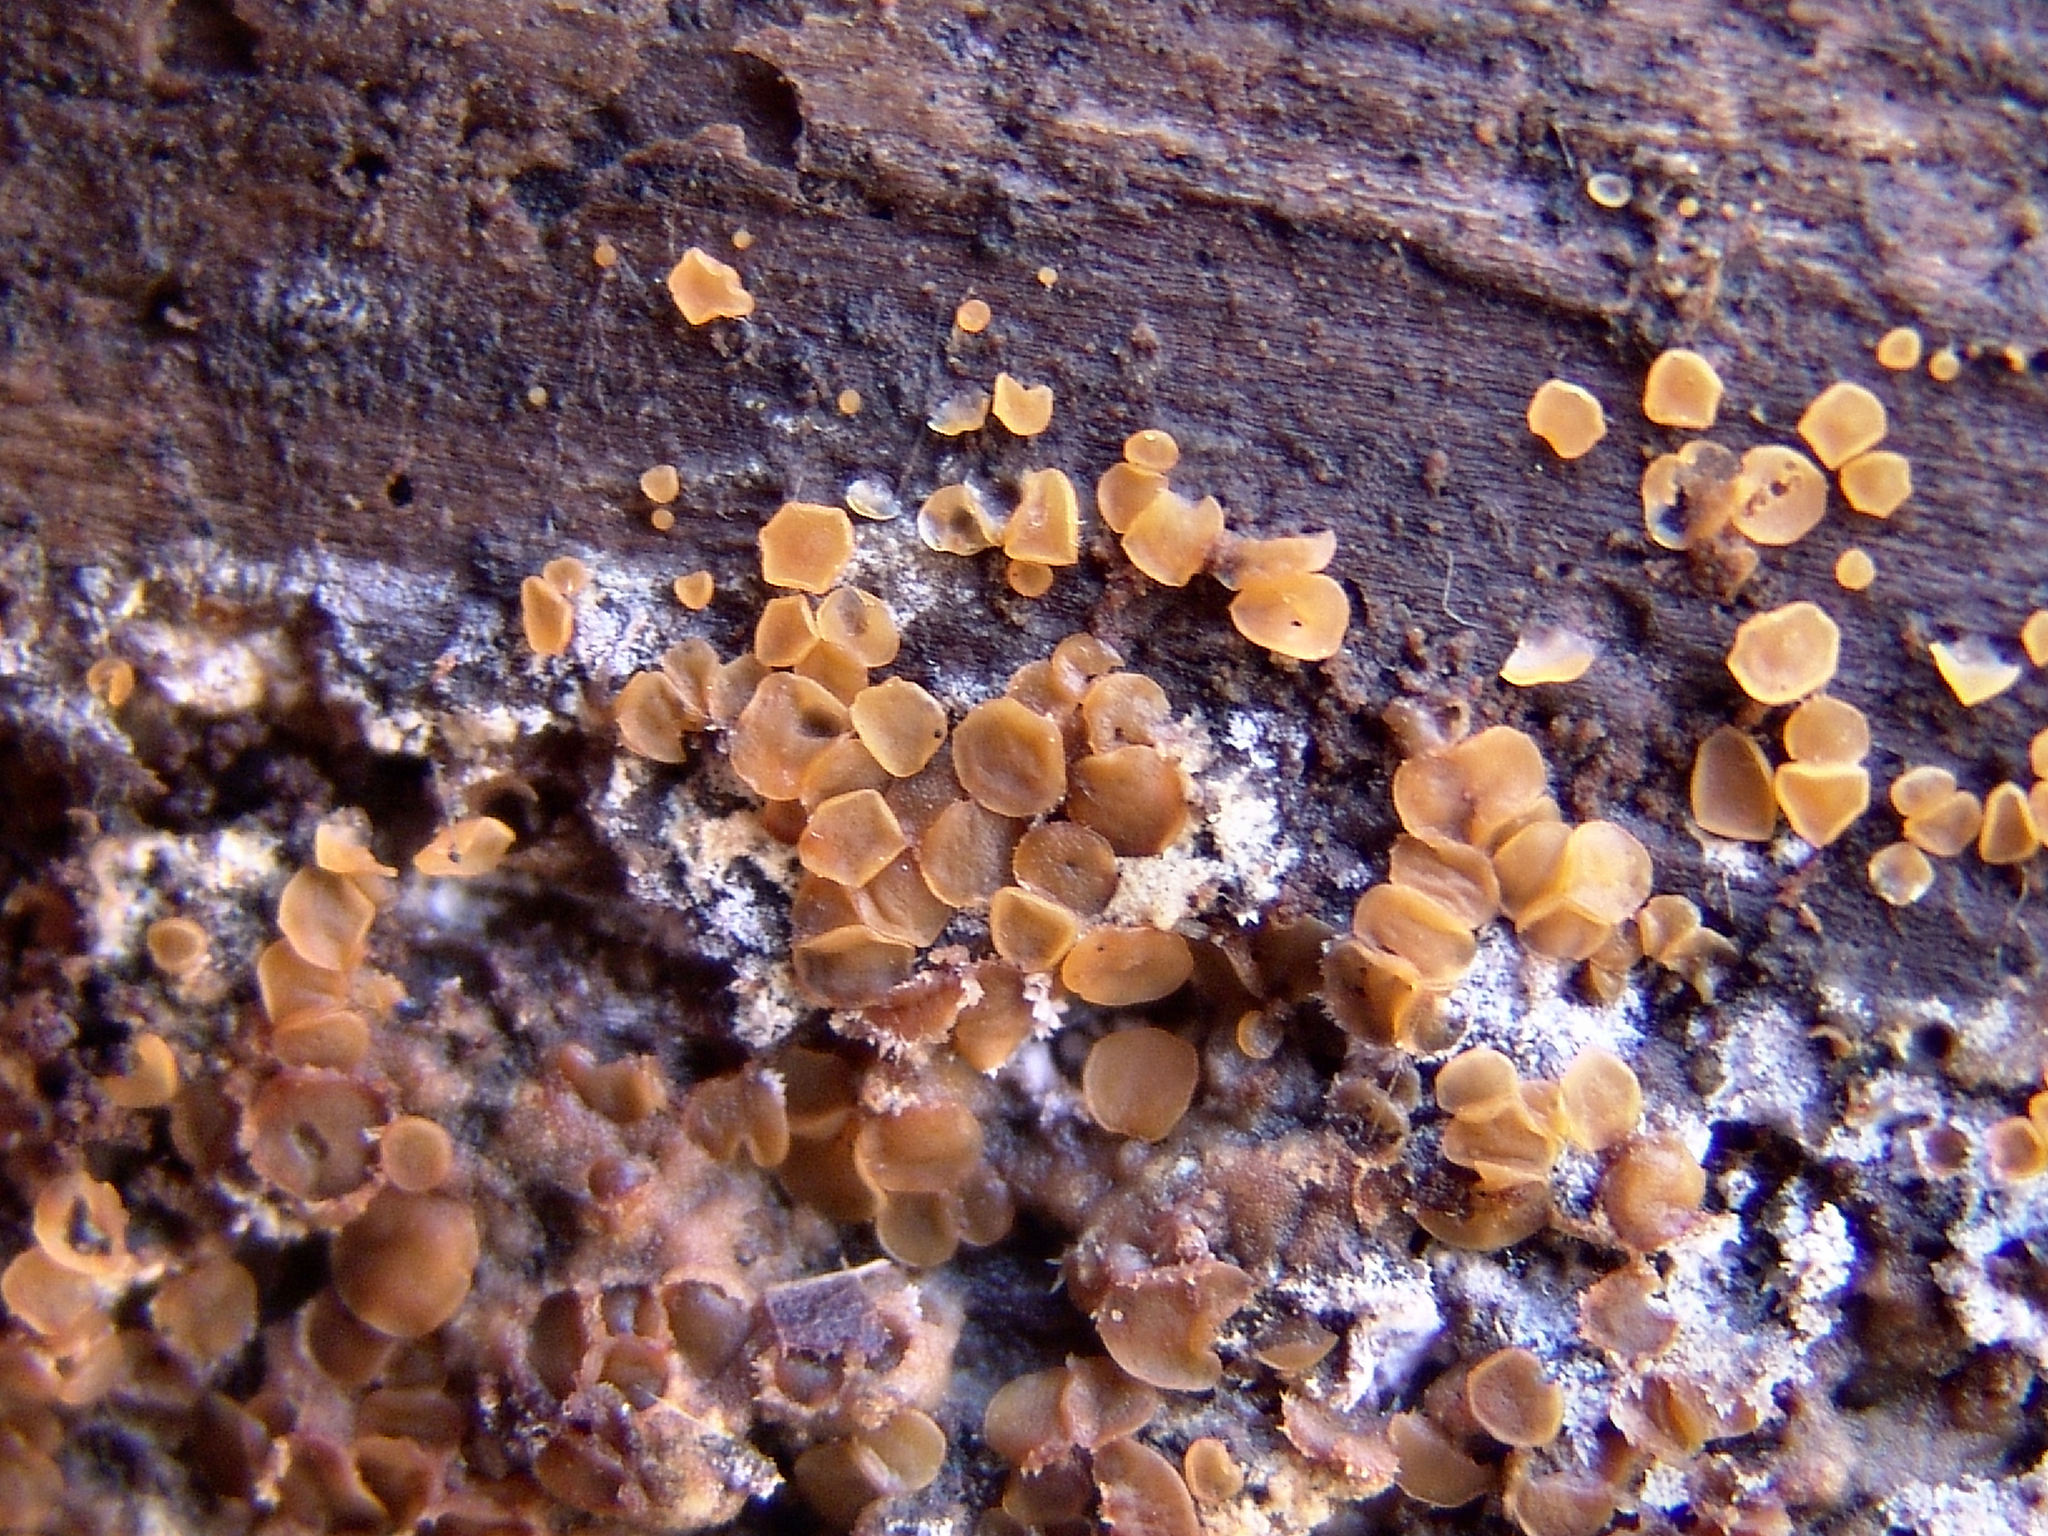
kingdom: Fungi
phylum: Ascomycota
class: Orbiliomycetes
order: Orbiliales
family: Orbiliaceae
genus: Orbilia
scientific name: Orbilia
